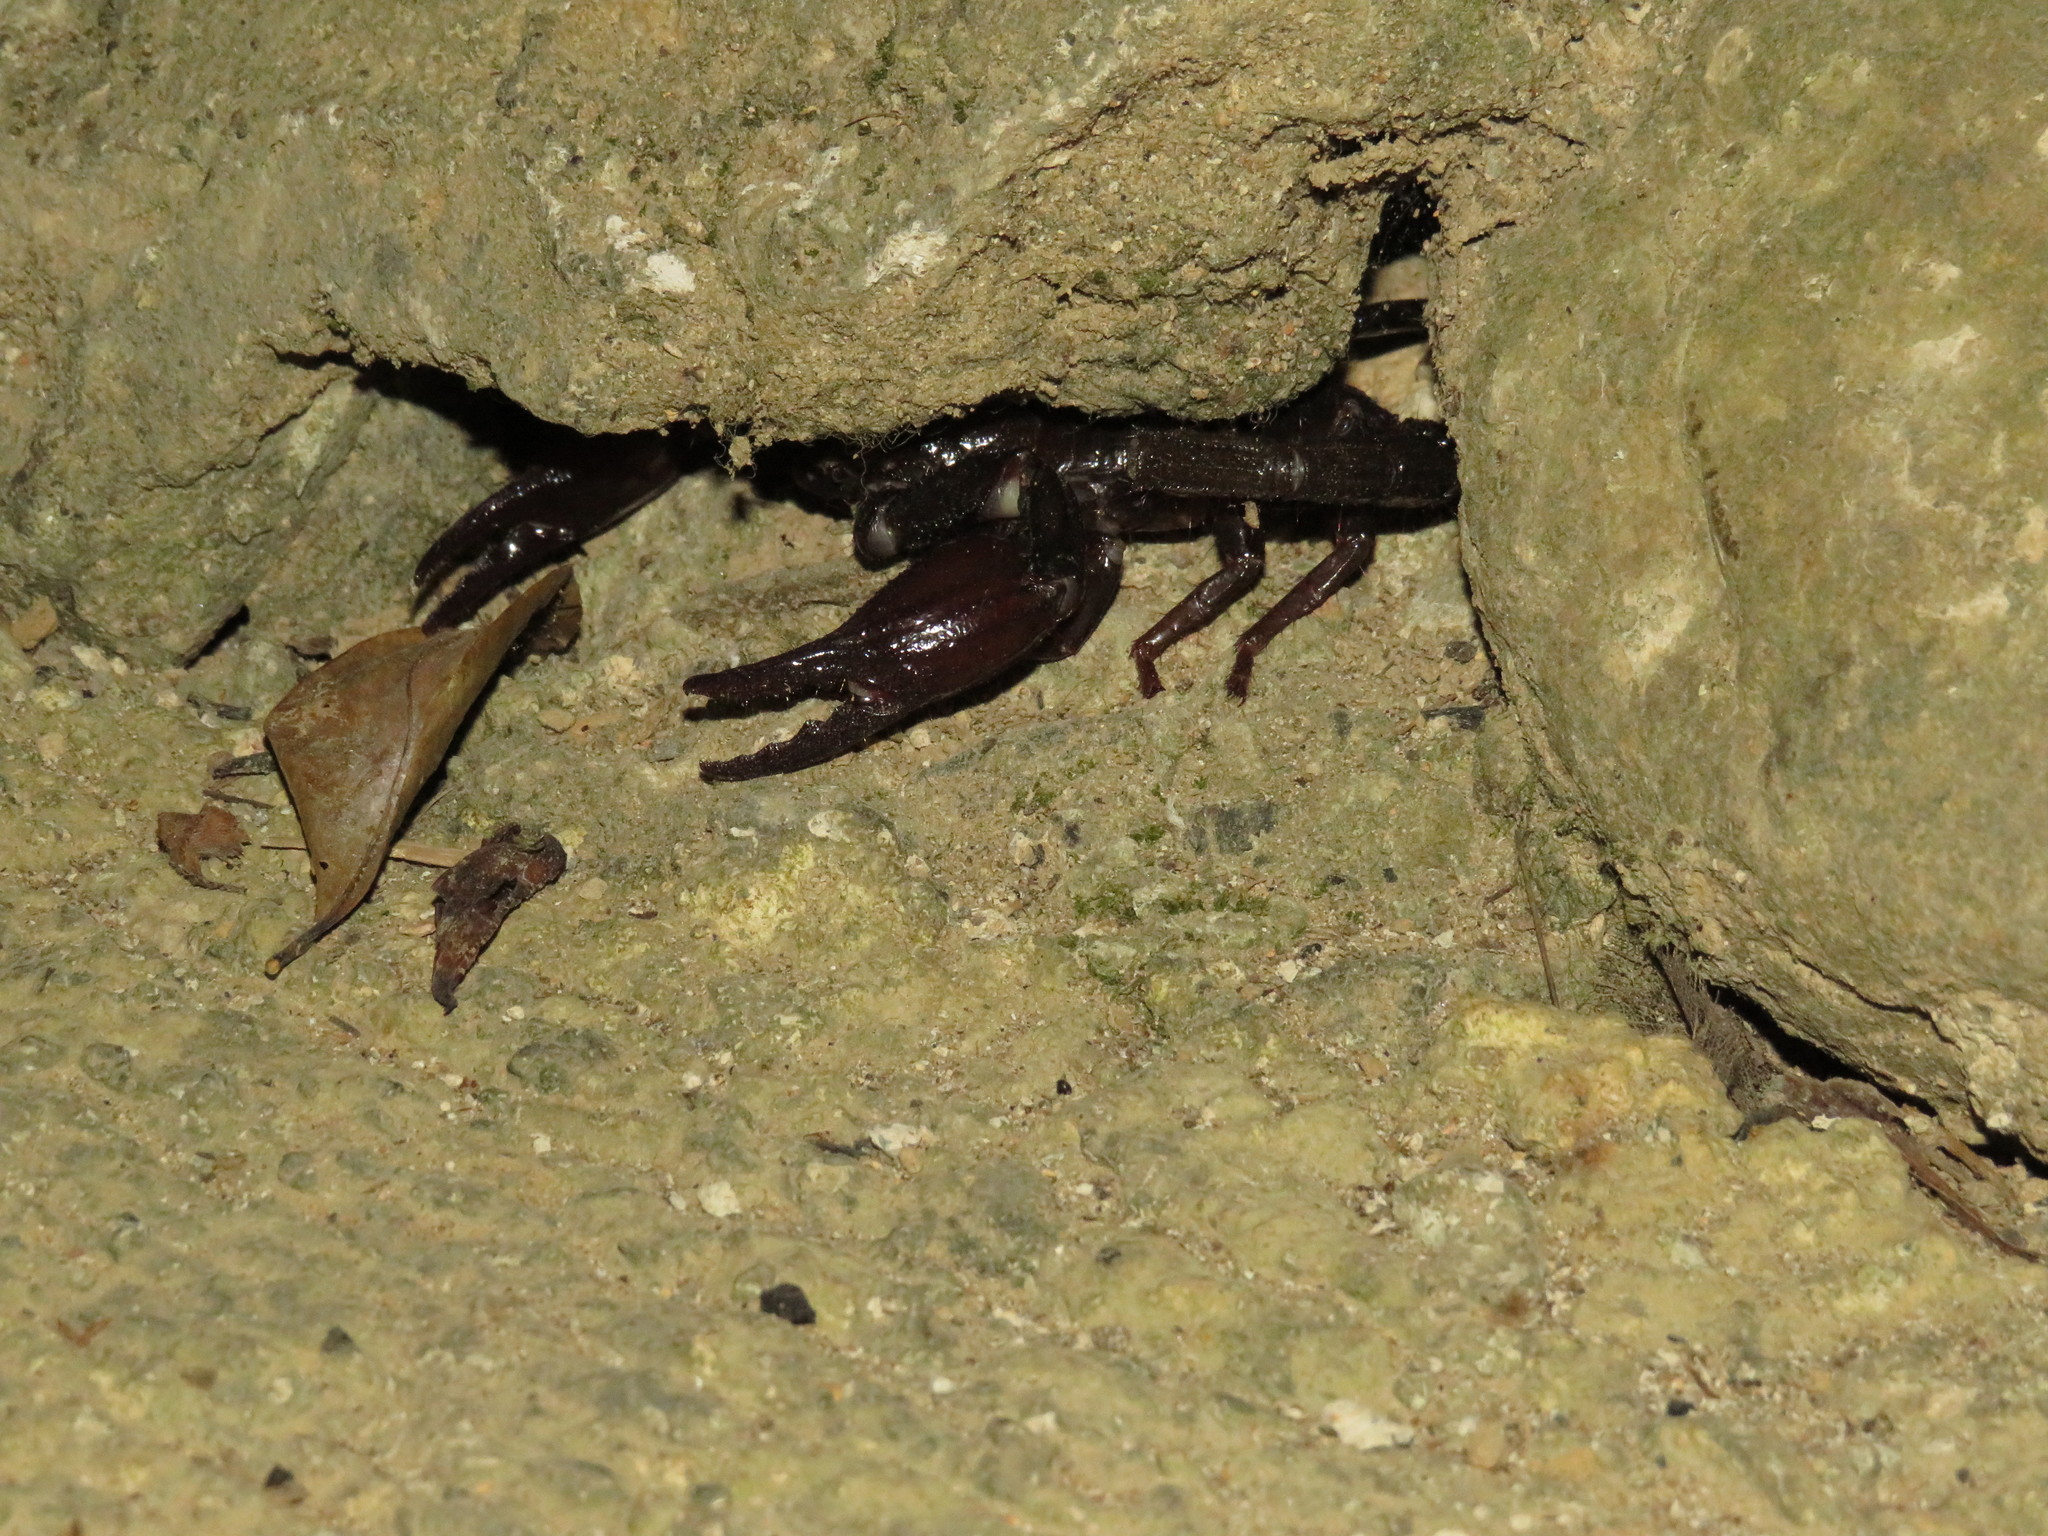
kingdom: Animalia
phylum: Arthropoda
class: Arachnida
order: Scorpiones
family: Scorpionidae
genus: Heterometrus
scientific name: Heterometrus longimanus
